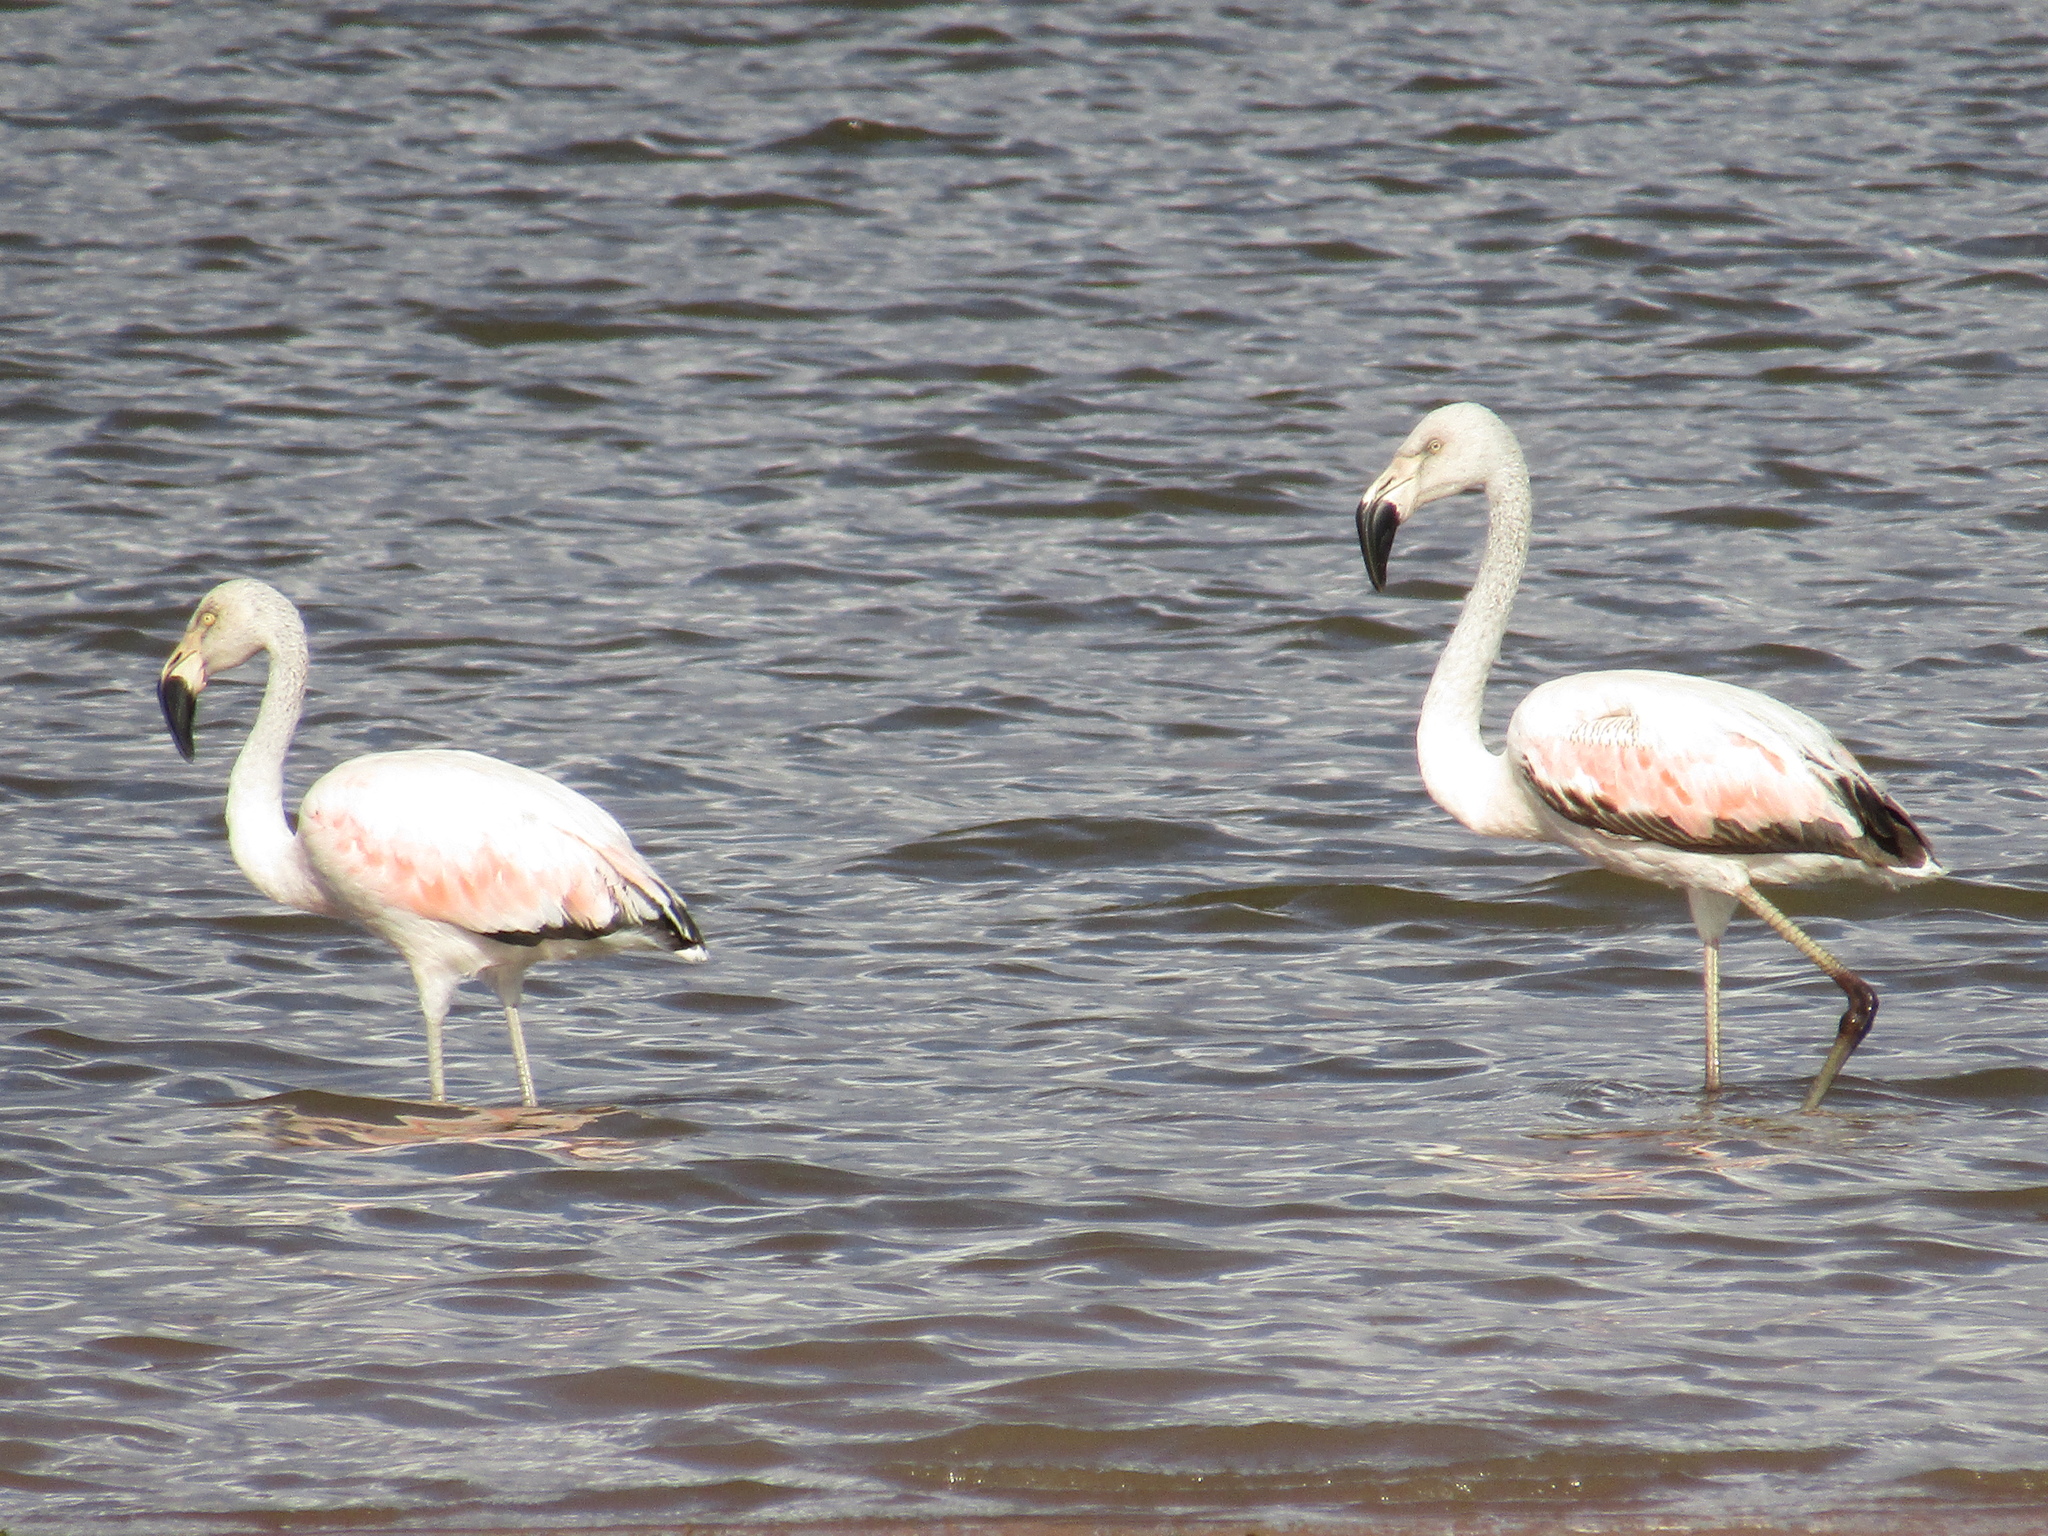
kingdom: Animalia
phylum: Chordata
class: Aves
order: Phoenicopteriformes
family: Phoenicopteridae
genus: Phoenicopterus
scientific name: Phoenicopterus chilensis
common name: Chilean flamingo
